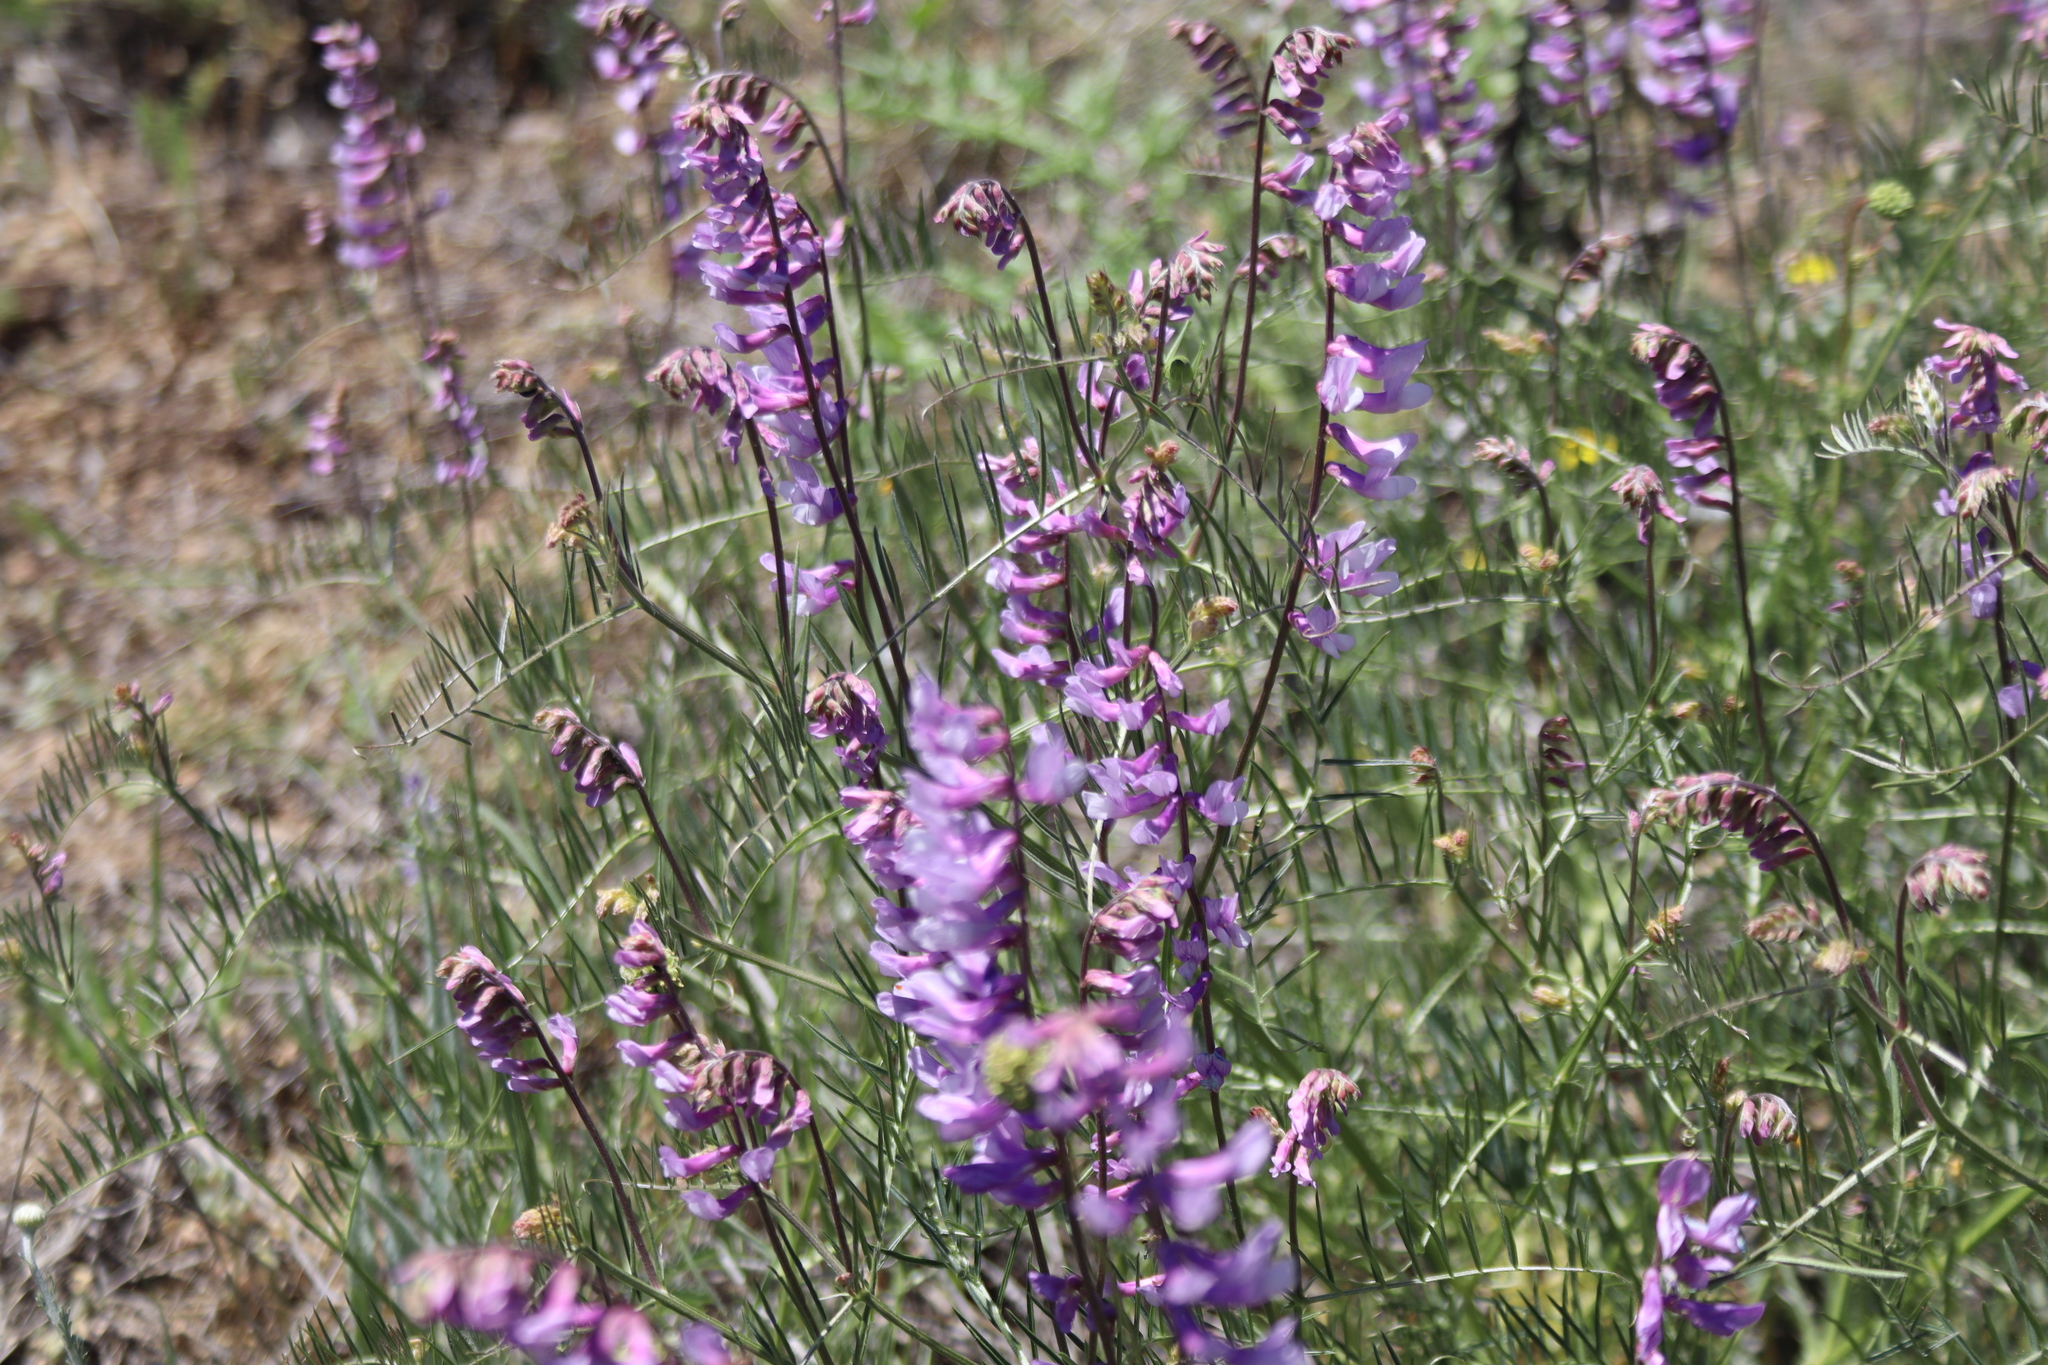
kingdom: Plantae
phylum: Tracheophyta
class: Magnoliopsida
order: Fabales
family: Fabaceae
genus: Vicia
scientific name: Vicia cracca
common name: Bird vetch
